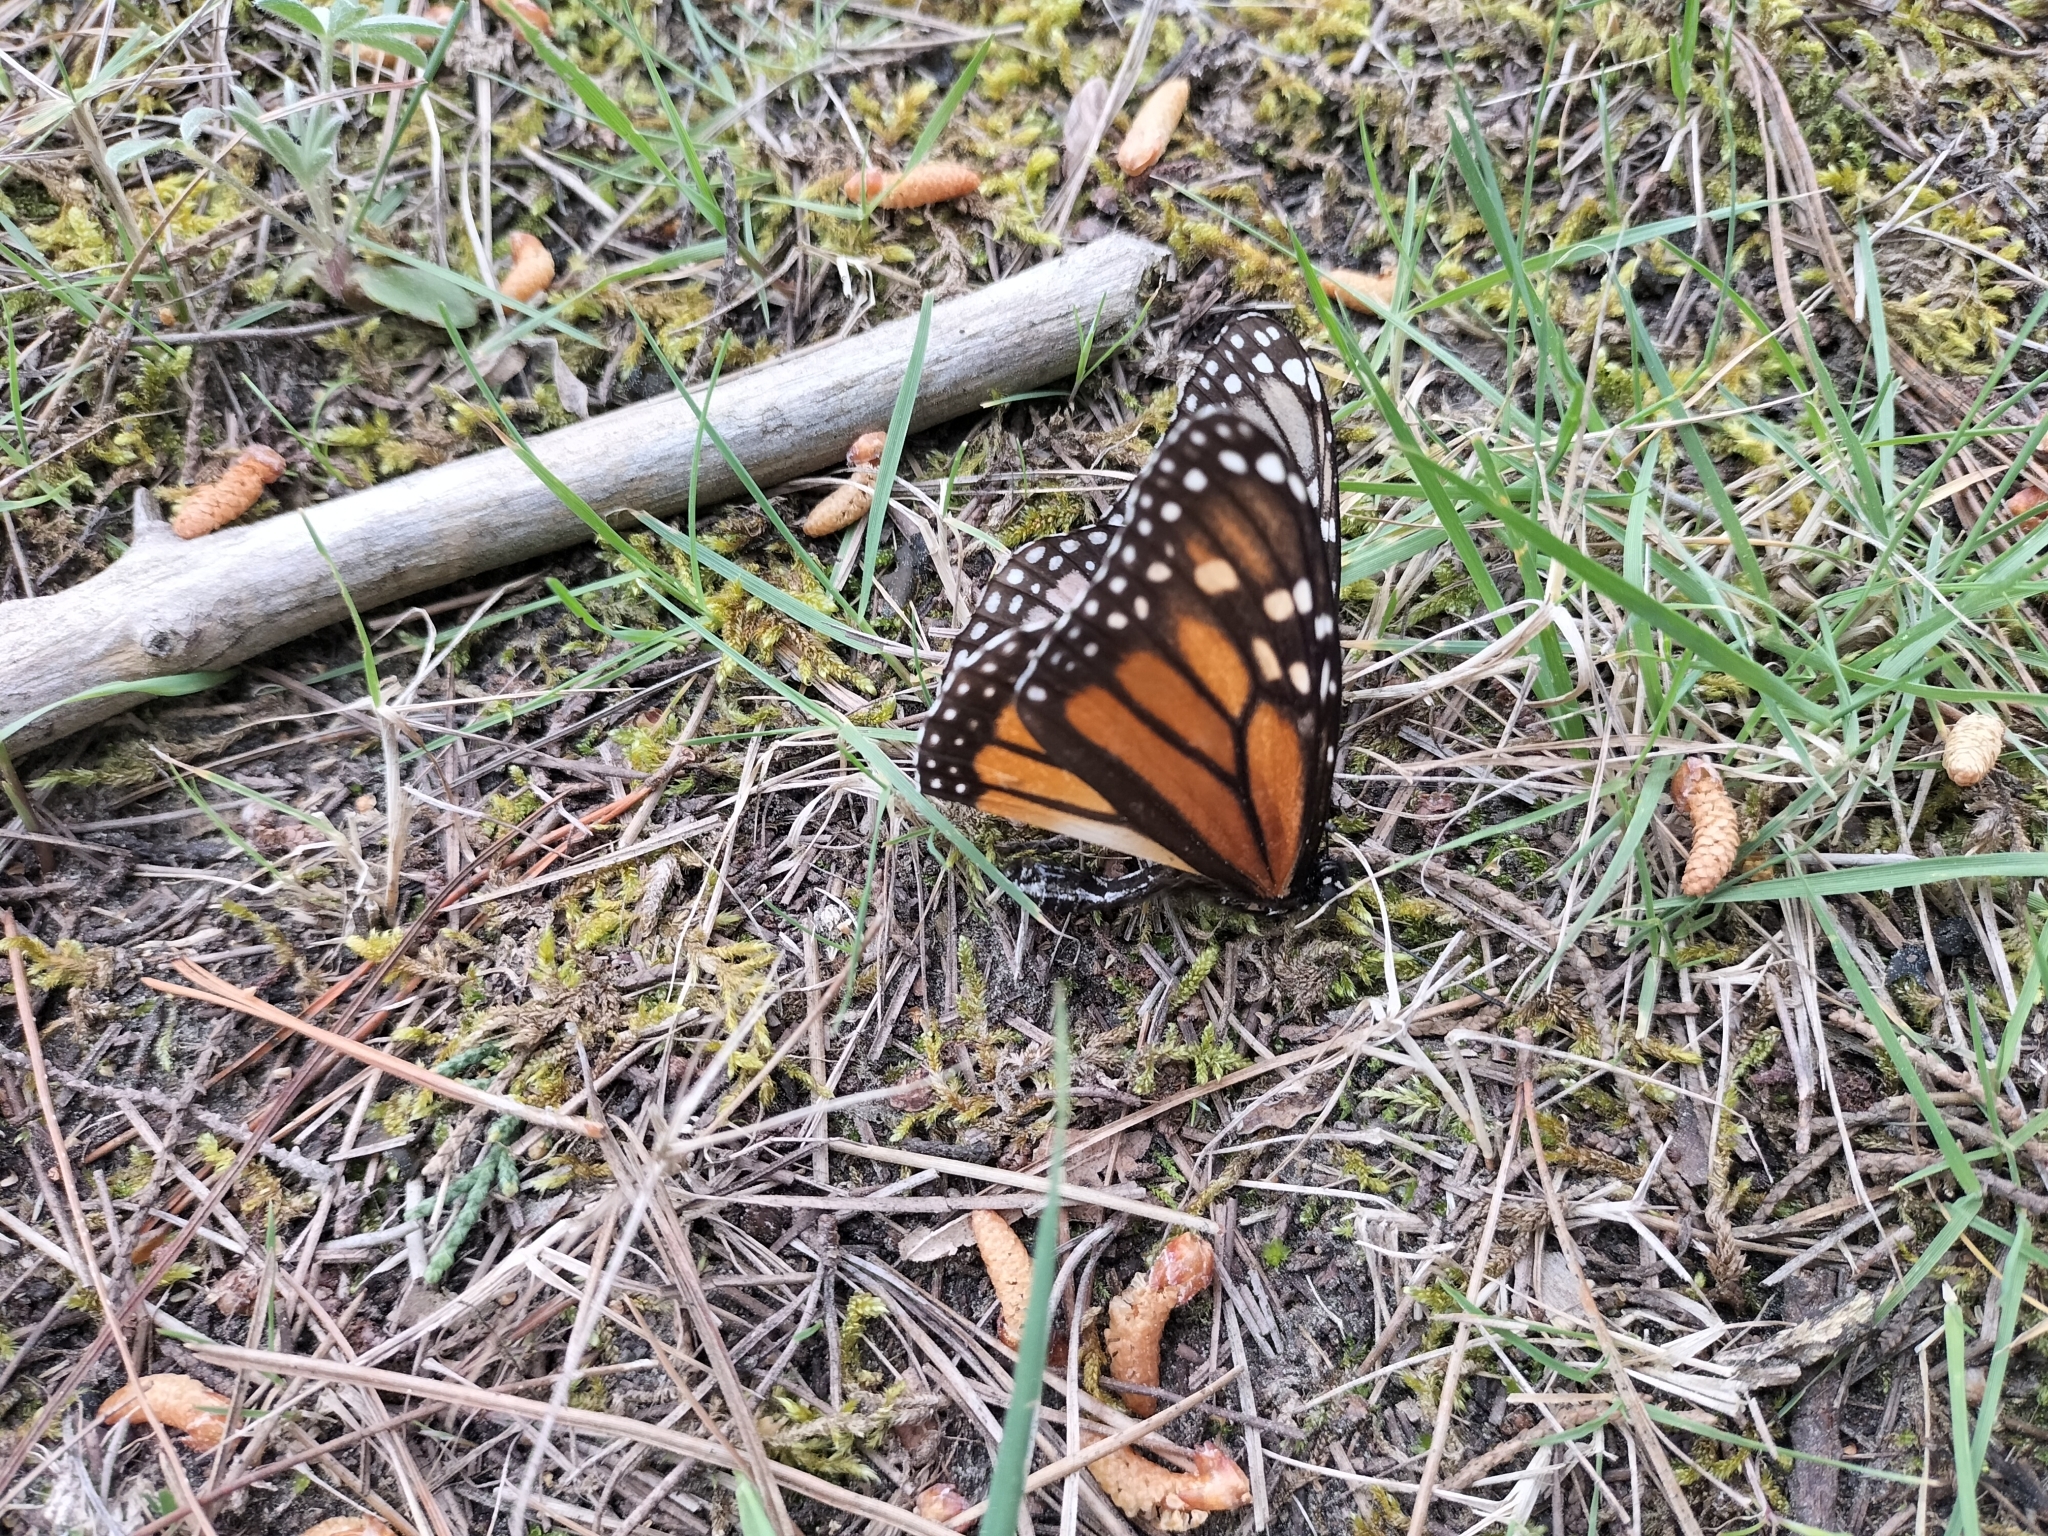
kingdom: Animalia
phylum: Arthropoda
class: Insecta
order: Lepidoptera
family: Nymphalidae
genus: Danaus
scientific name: Danaus plexippus
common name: Monarch
